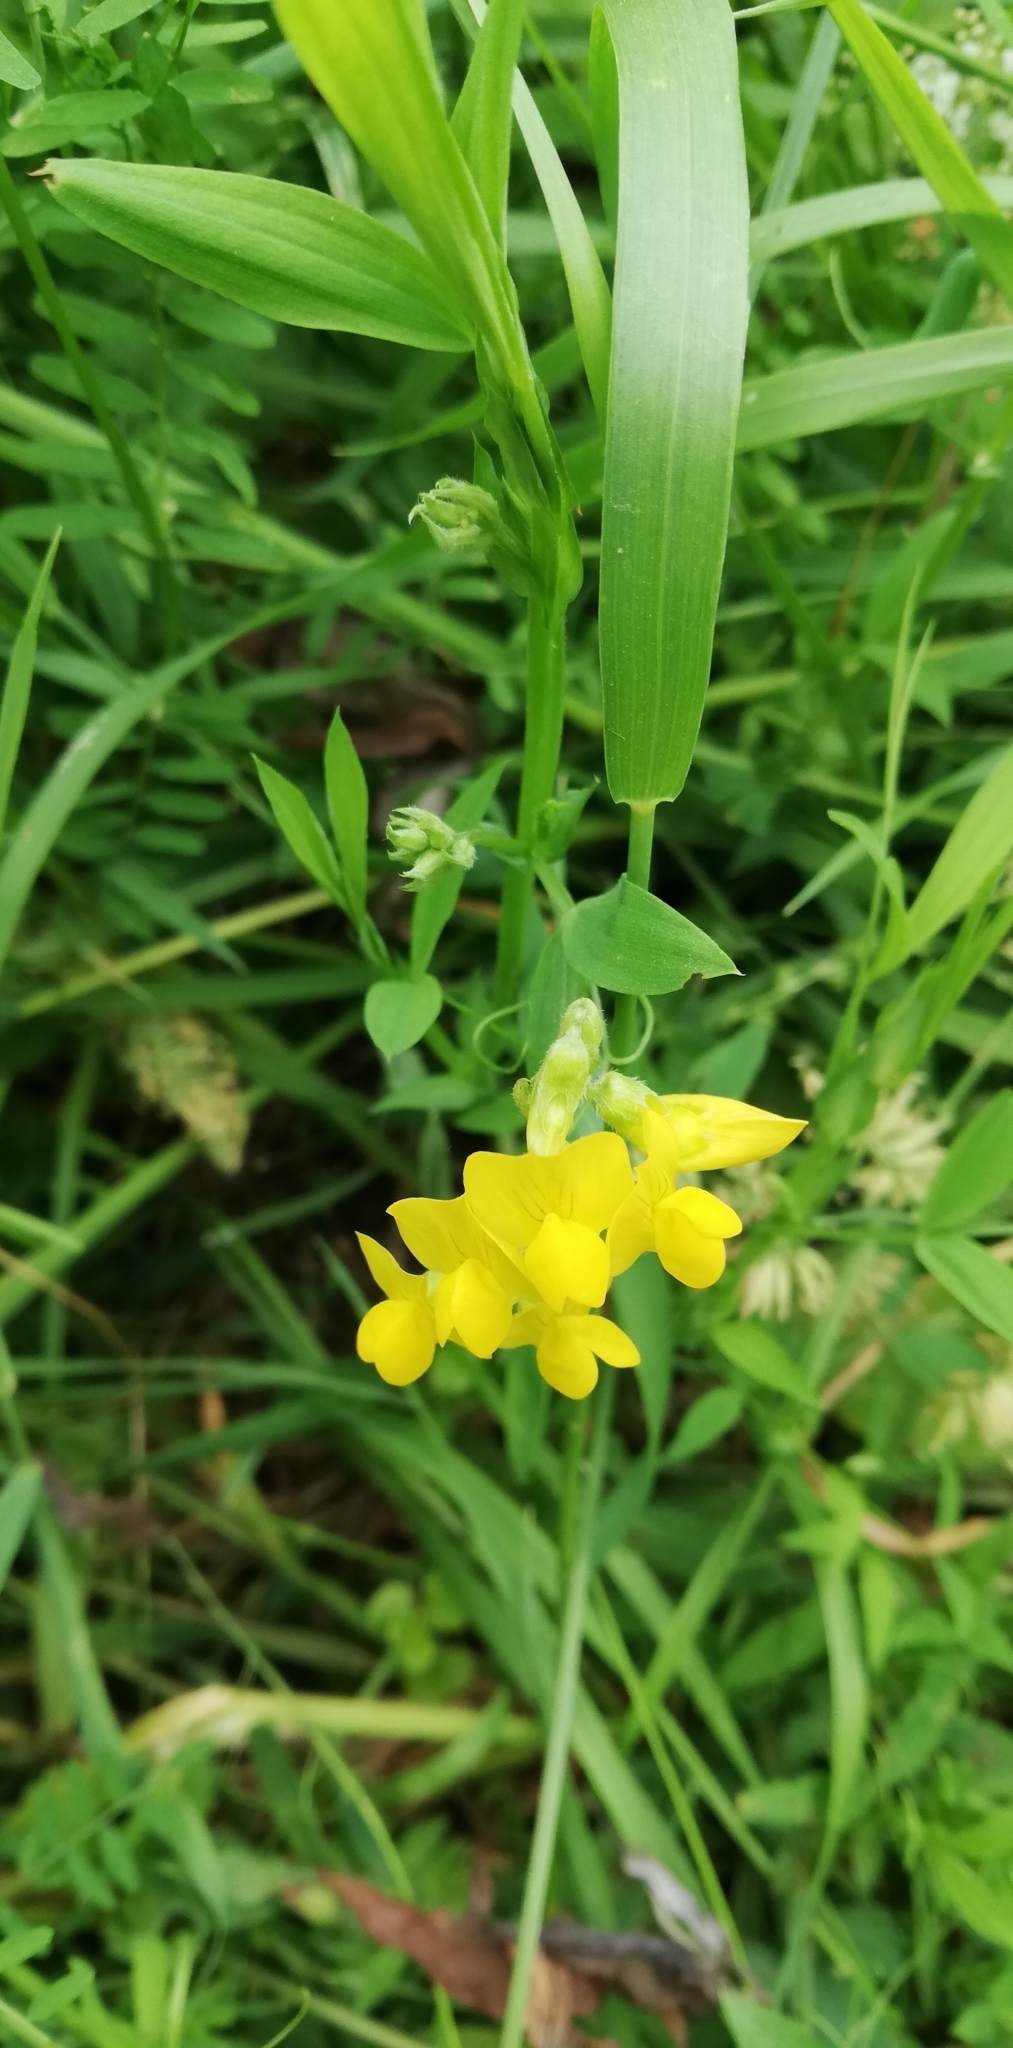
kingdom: Plantae
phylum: Tracheophyta
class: Magnoliopsida
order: Fabales
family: Fabaceae
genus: Lathyrus
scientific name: Lathyrus pratensis
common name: Meadow vetchling
